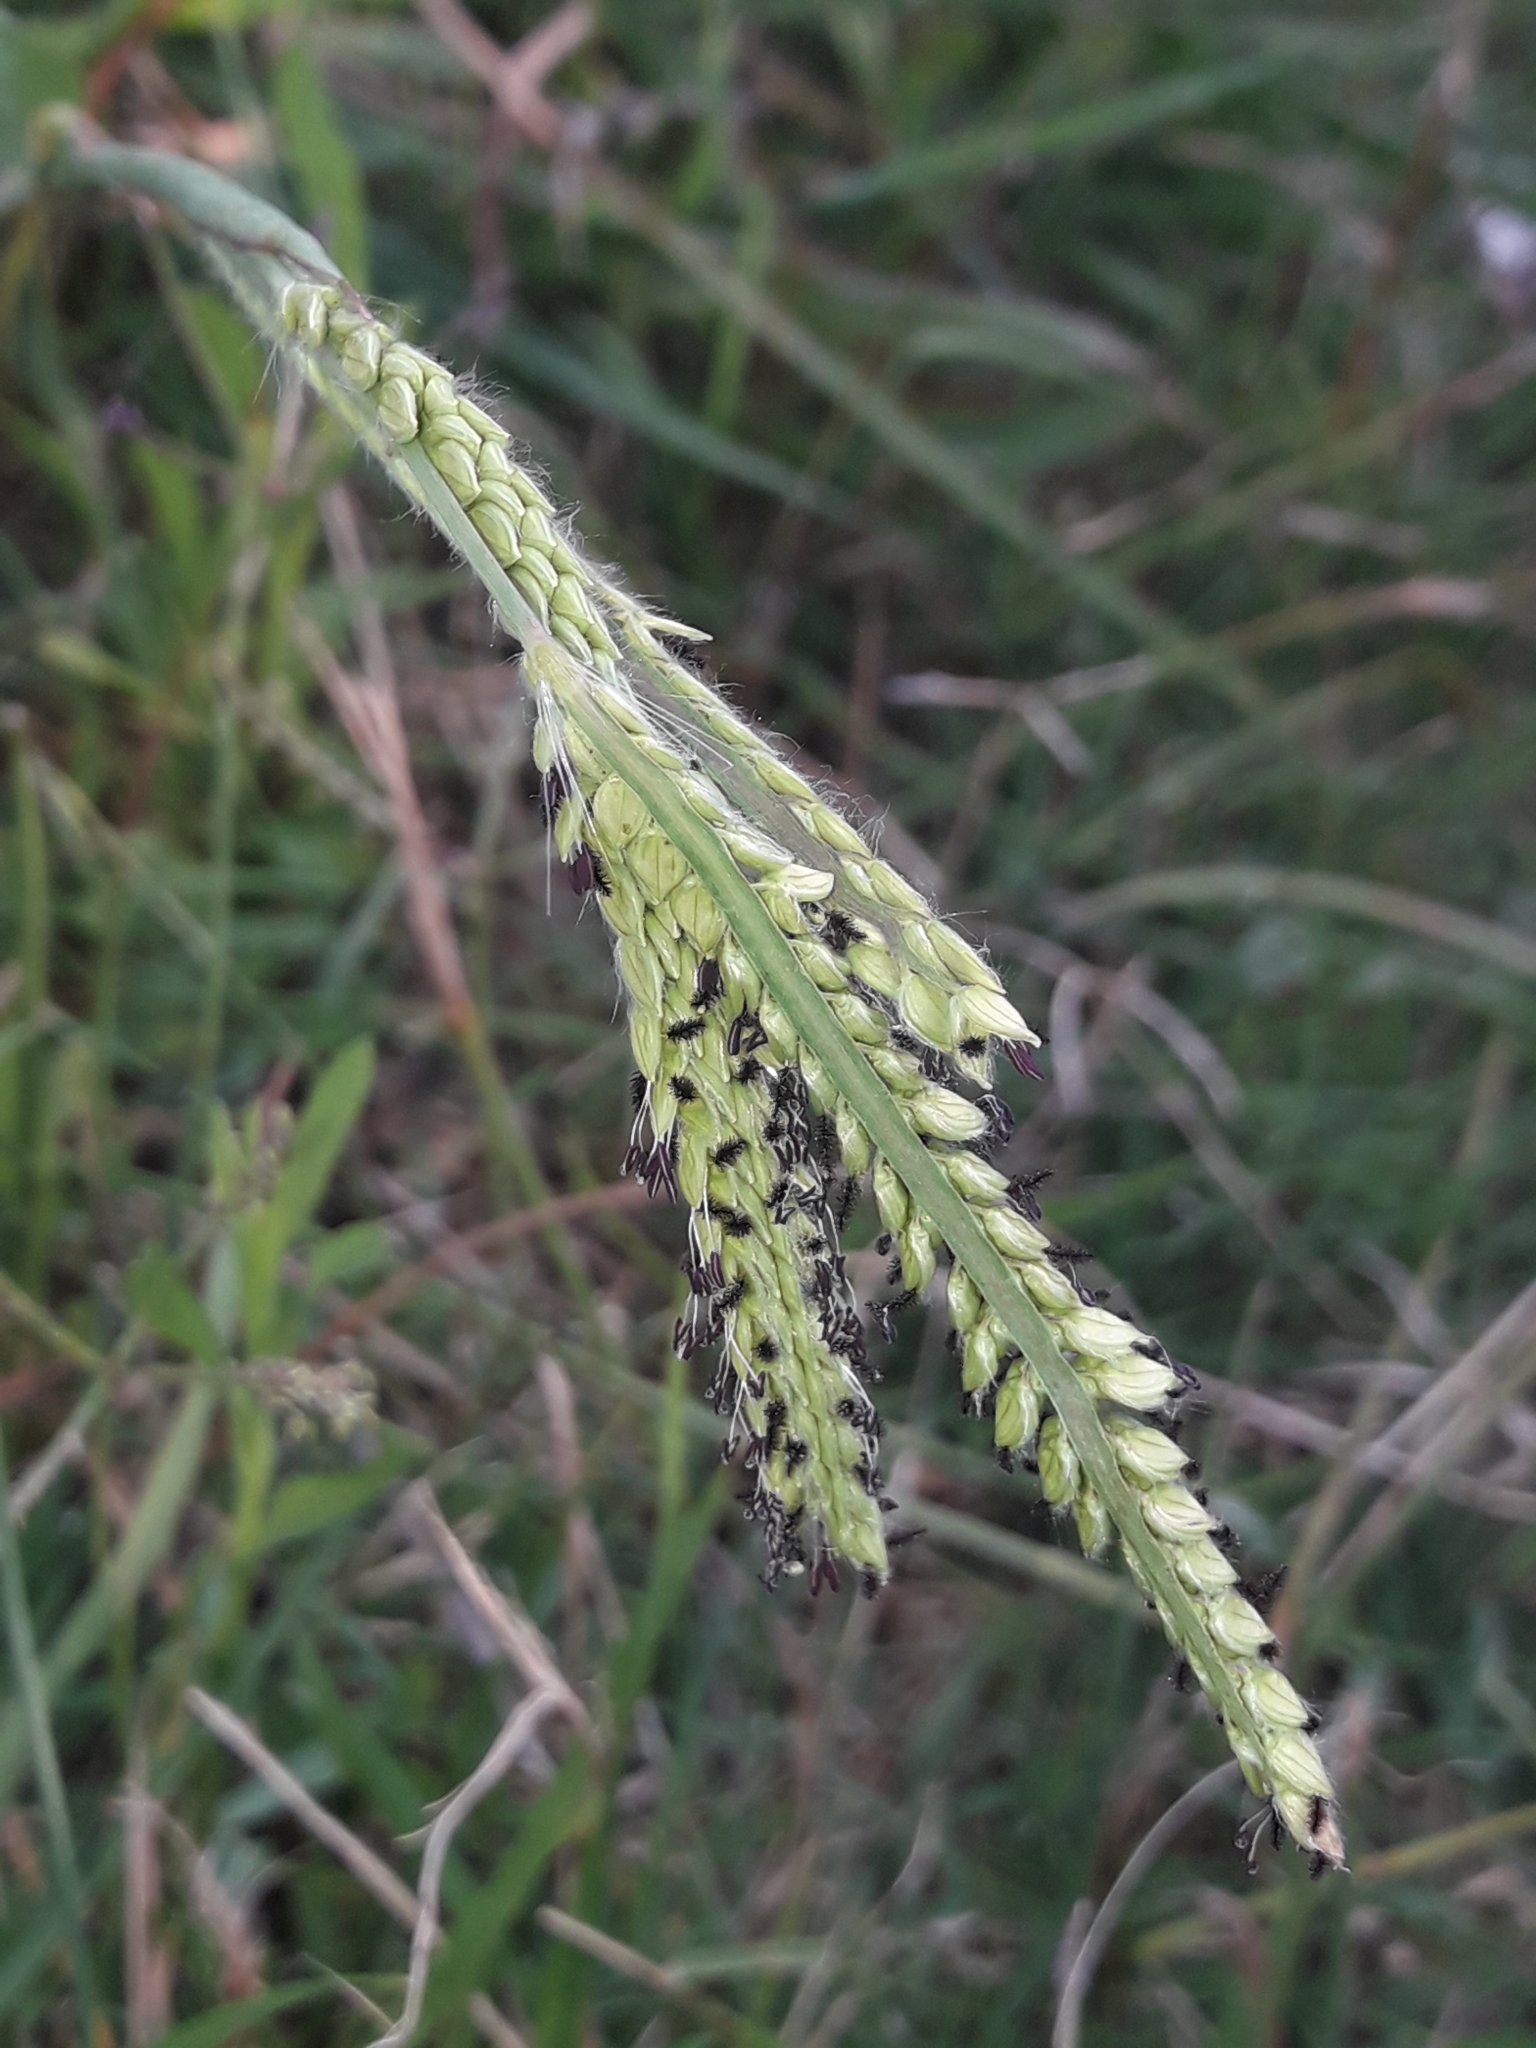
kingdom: Plantae
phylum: Tracheophyta
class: Liliopsida
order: Poales
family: Poaceae
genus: Paspalum
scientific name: Paspalum dilatatum
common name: Dallisgrass
